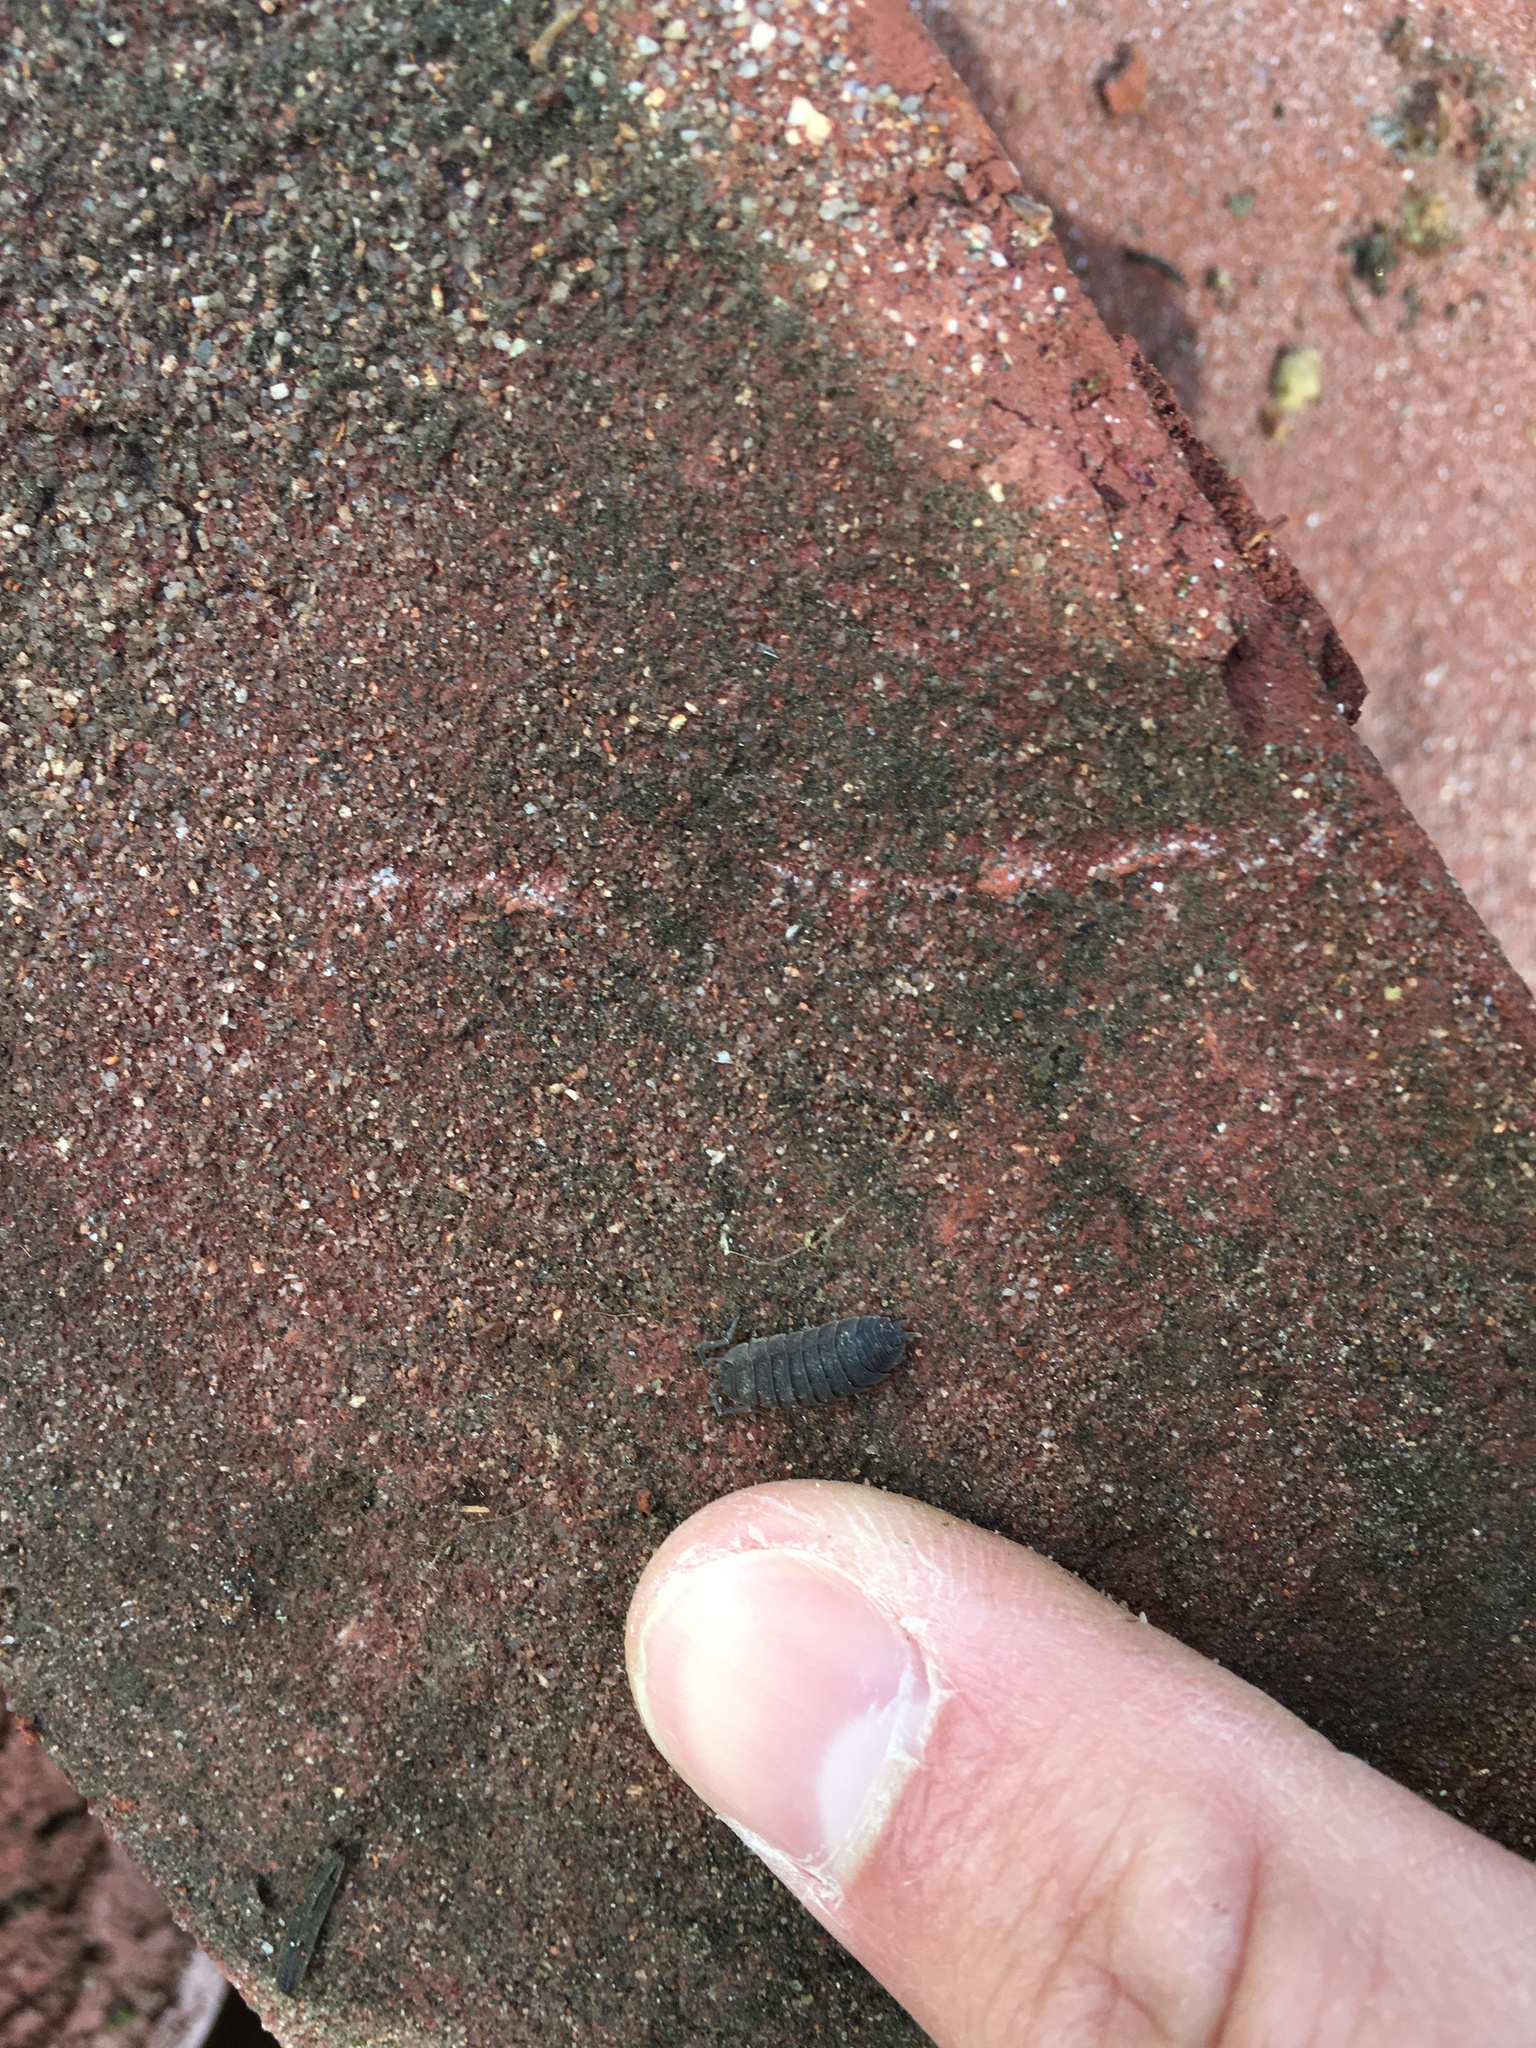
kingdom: Animalia
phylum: Arthropoda
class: Malacostraca
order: Isopoda
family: Porcellionidae
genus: Porcellio
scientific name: Porcellio scaber
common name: Common rough woodlouse
